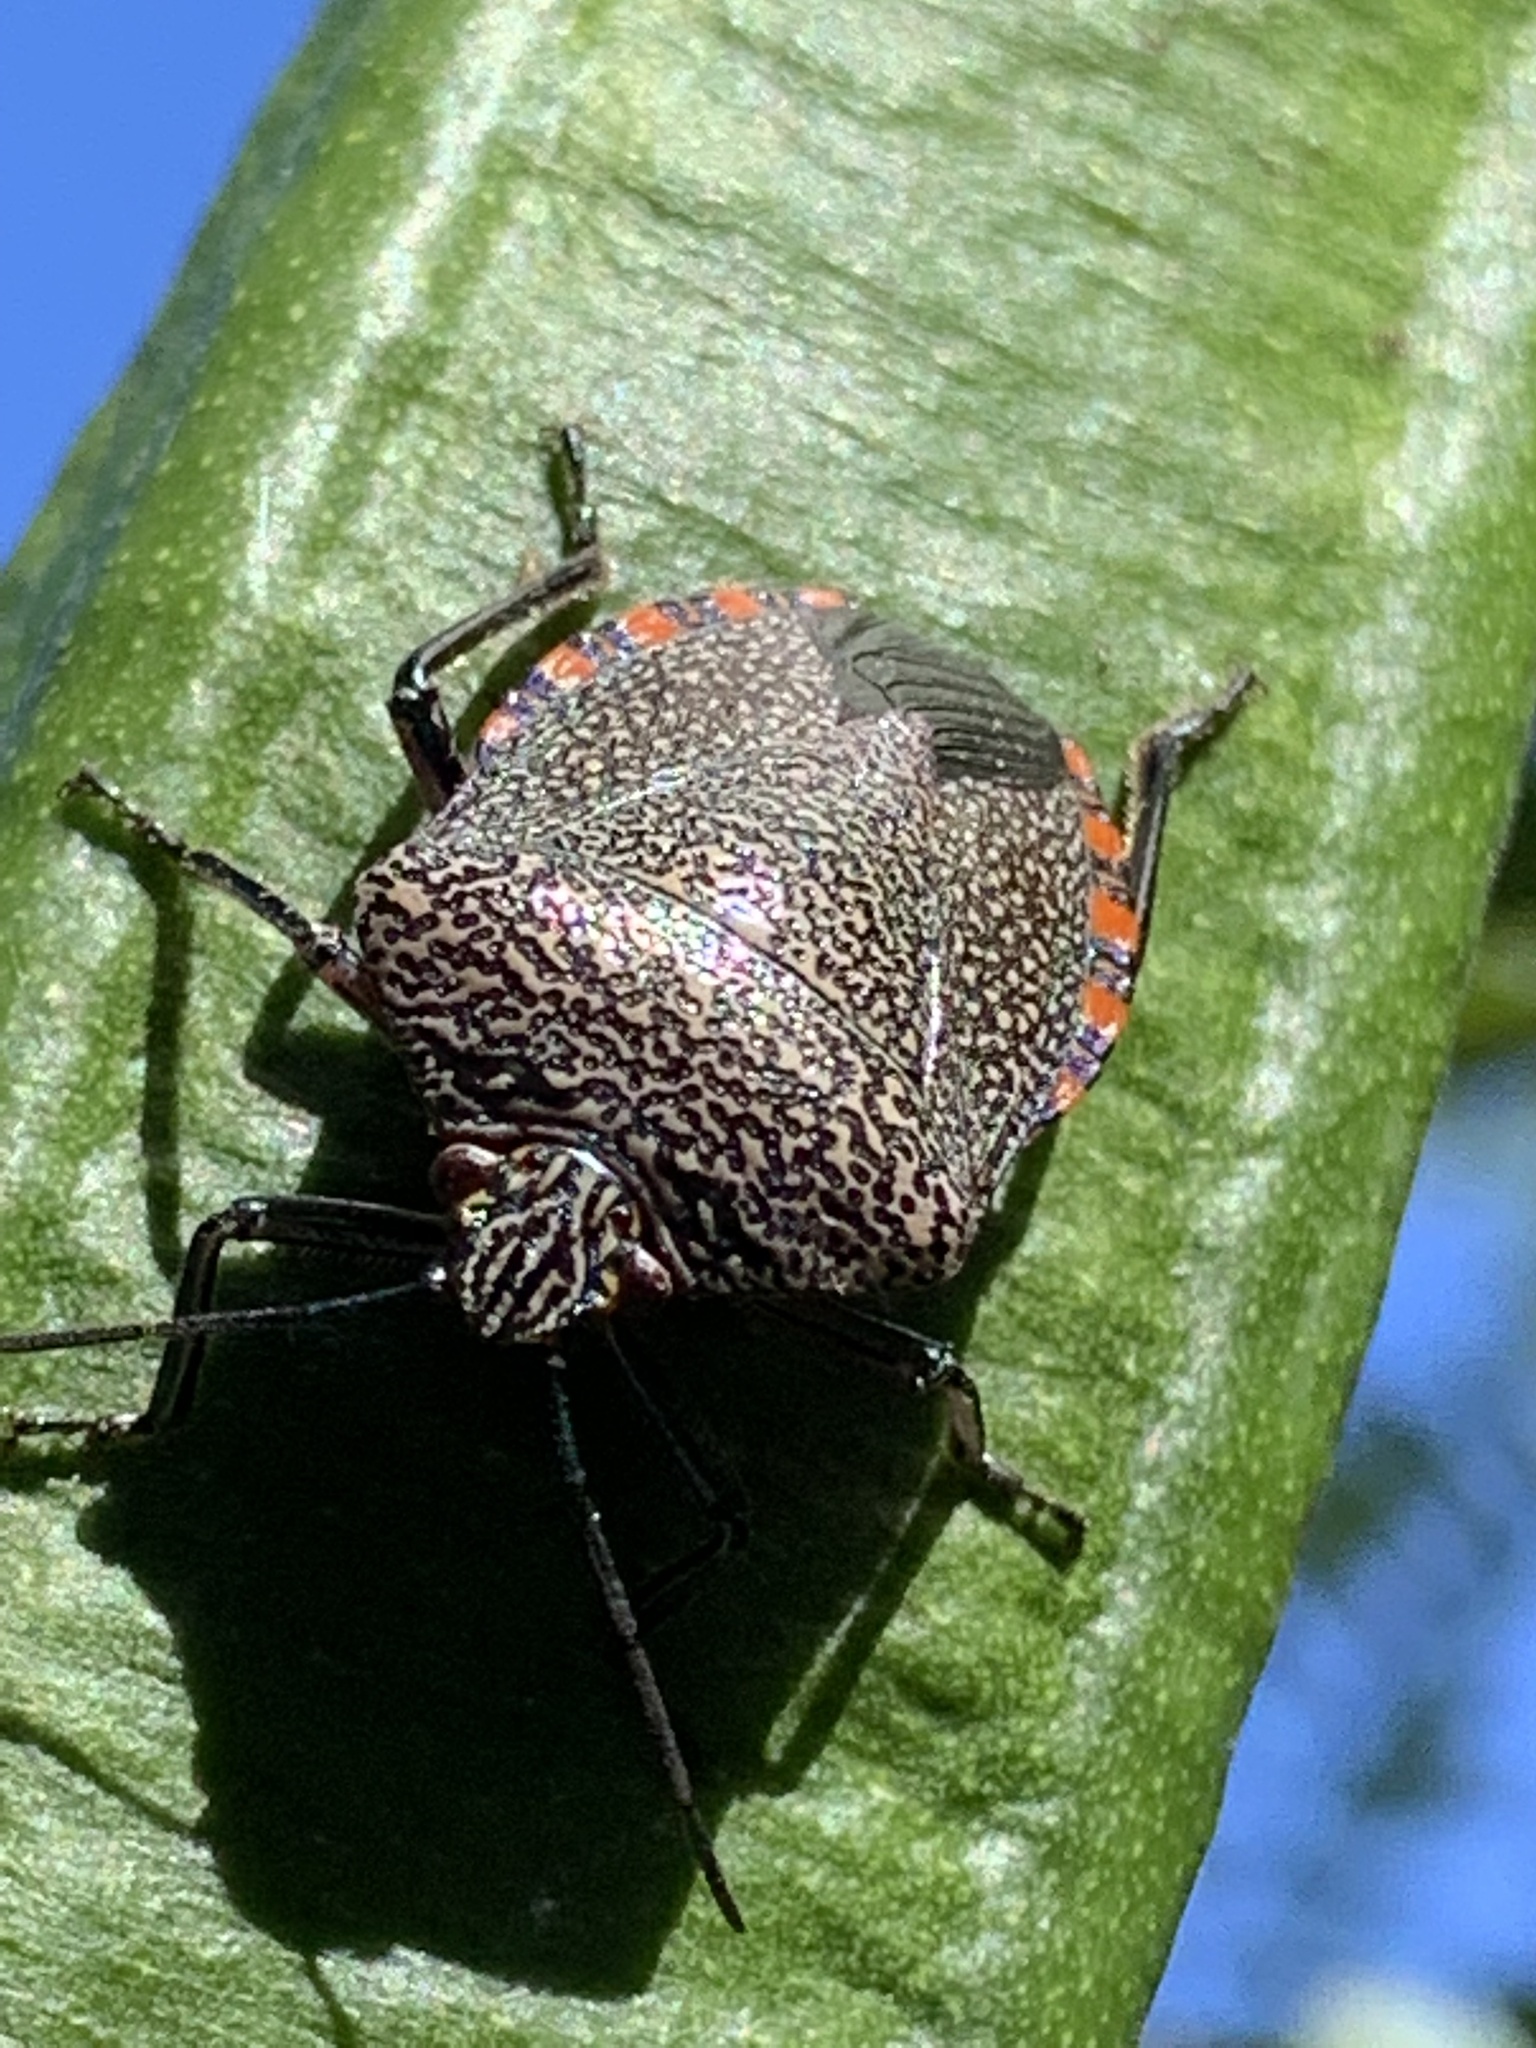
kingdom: Animalia
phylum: Arthropoda
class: Insecta
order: Hemiptera
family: Pentatomidae
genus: Pellaea
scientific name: Pellaea stictica
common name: Stink bug
